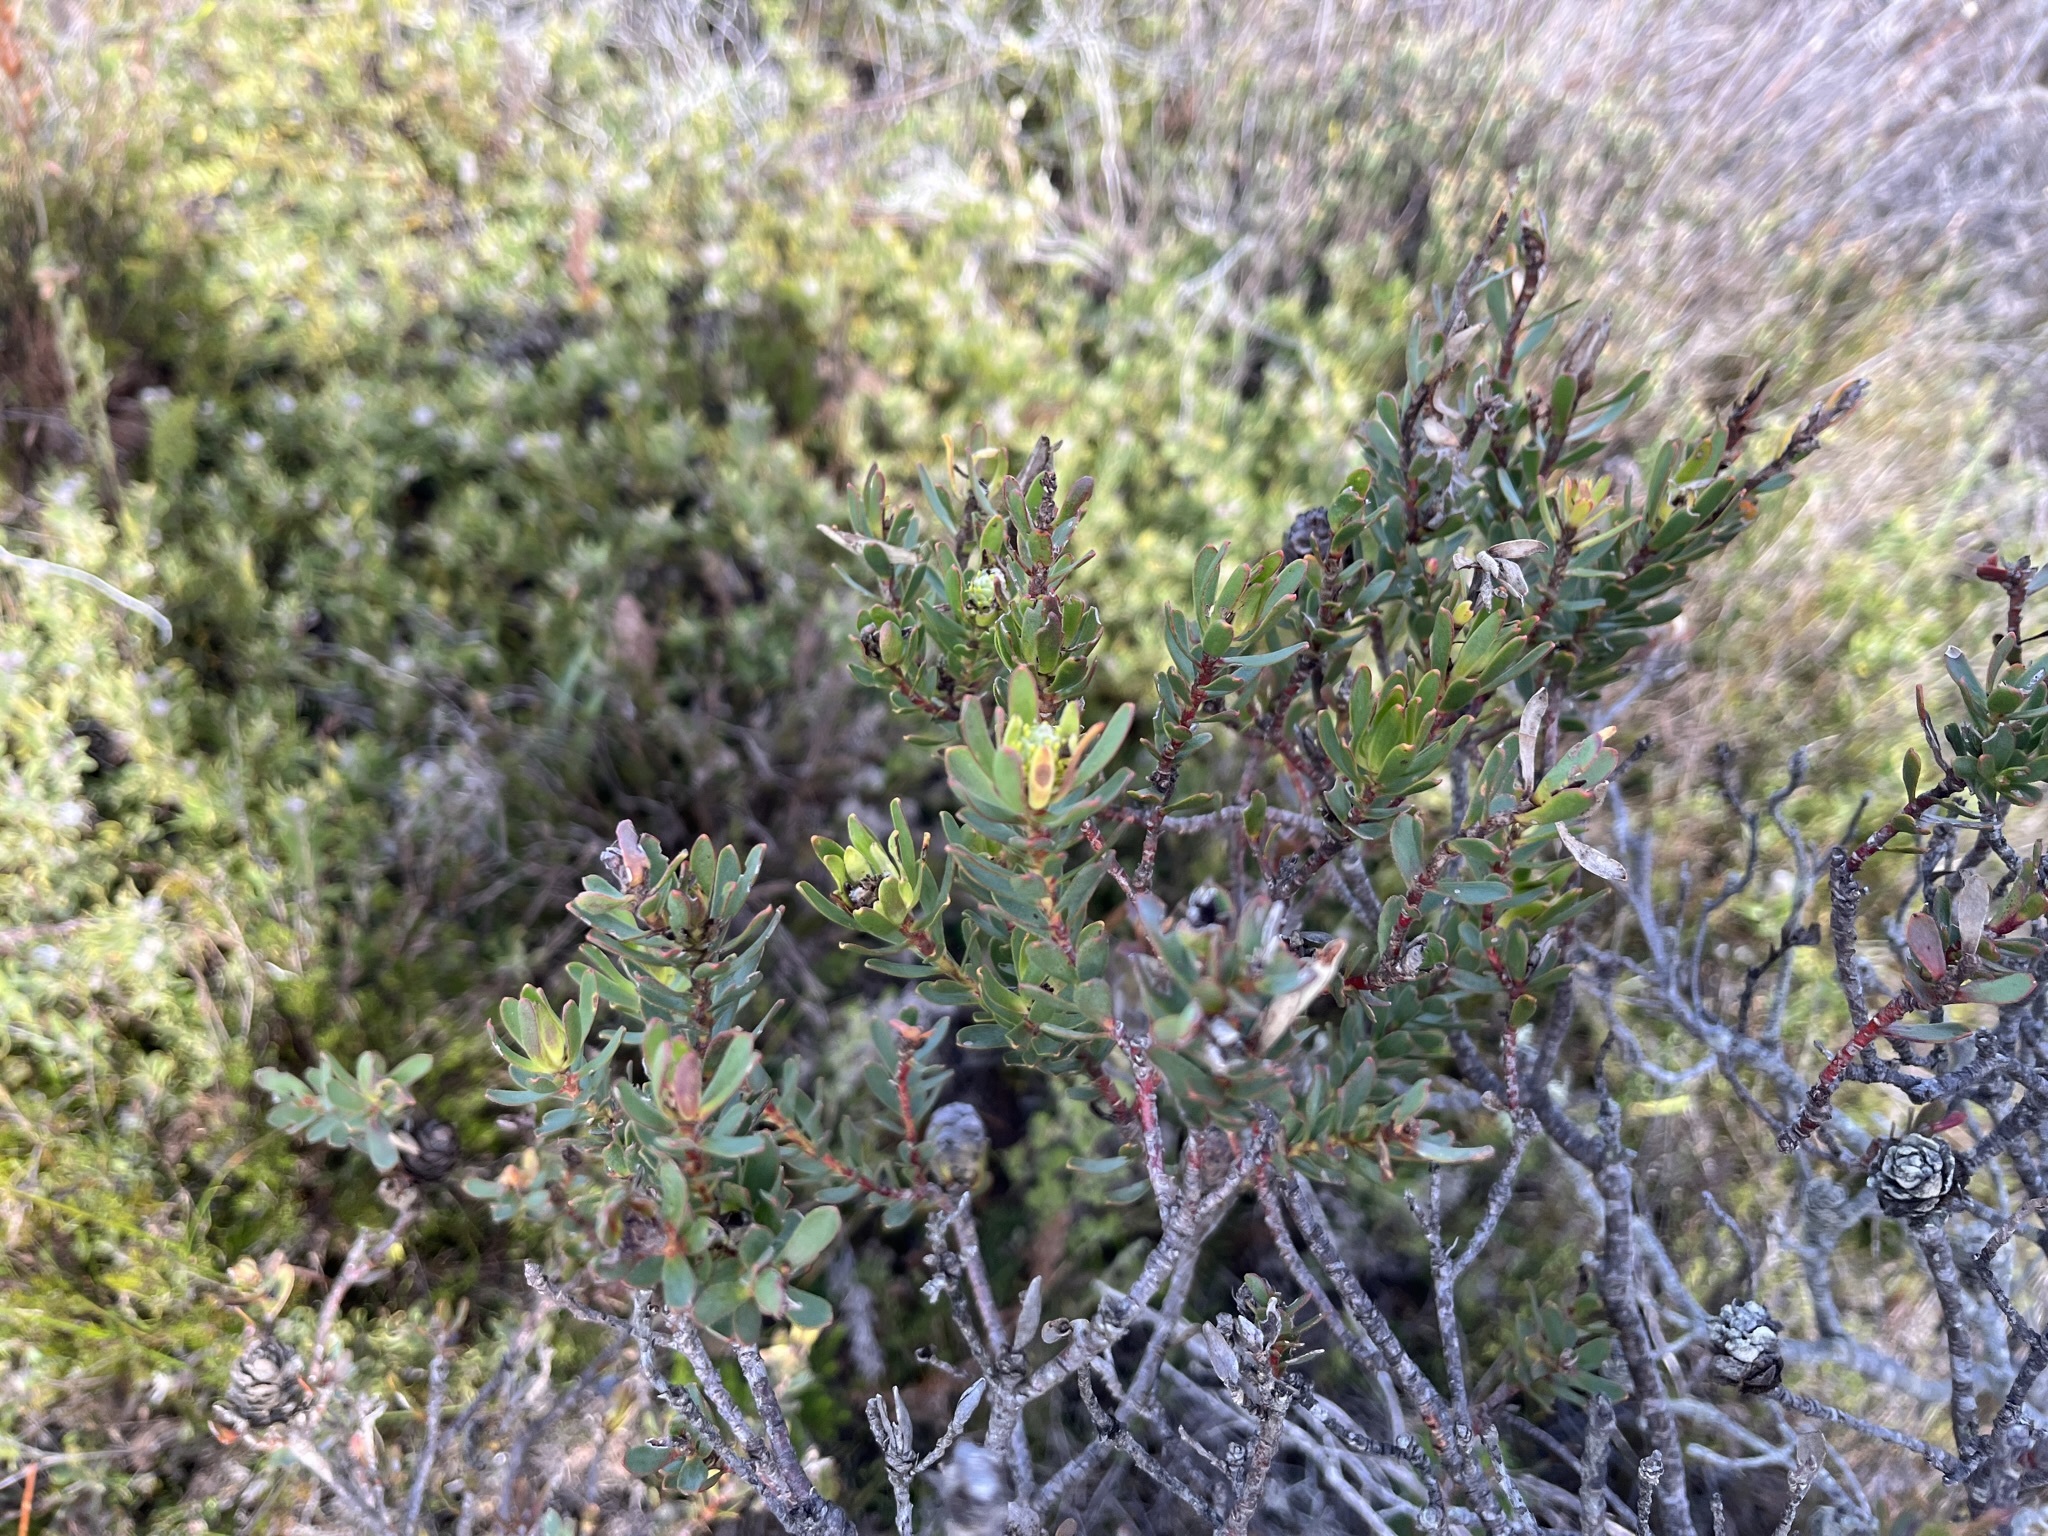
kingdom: Plantae
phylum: Tracheophyta
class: Magnoliopsida
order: Proteales
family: Proteaceae
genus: Leucadendron
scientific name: Leucadendron stelligerum
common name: Agulhas conebush
